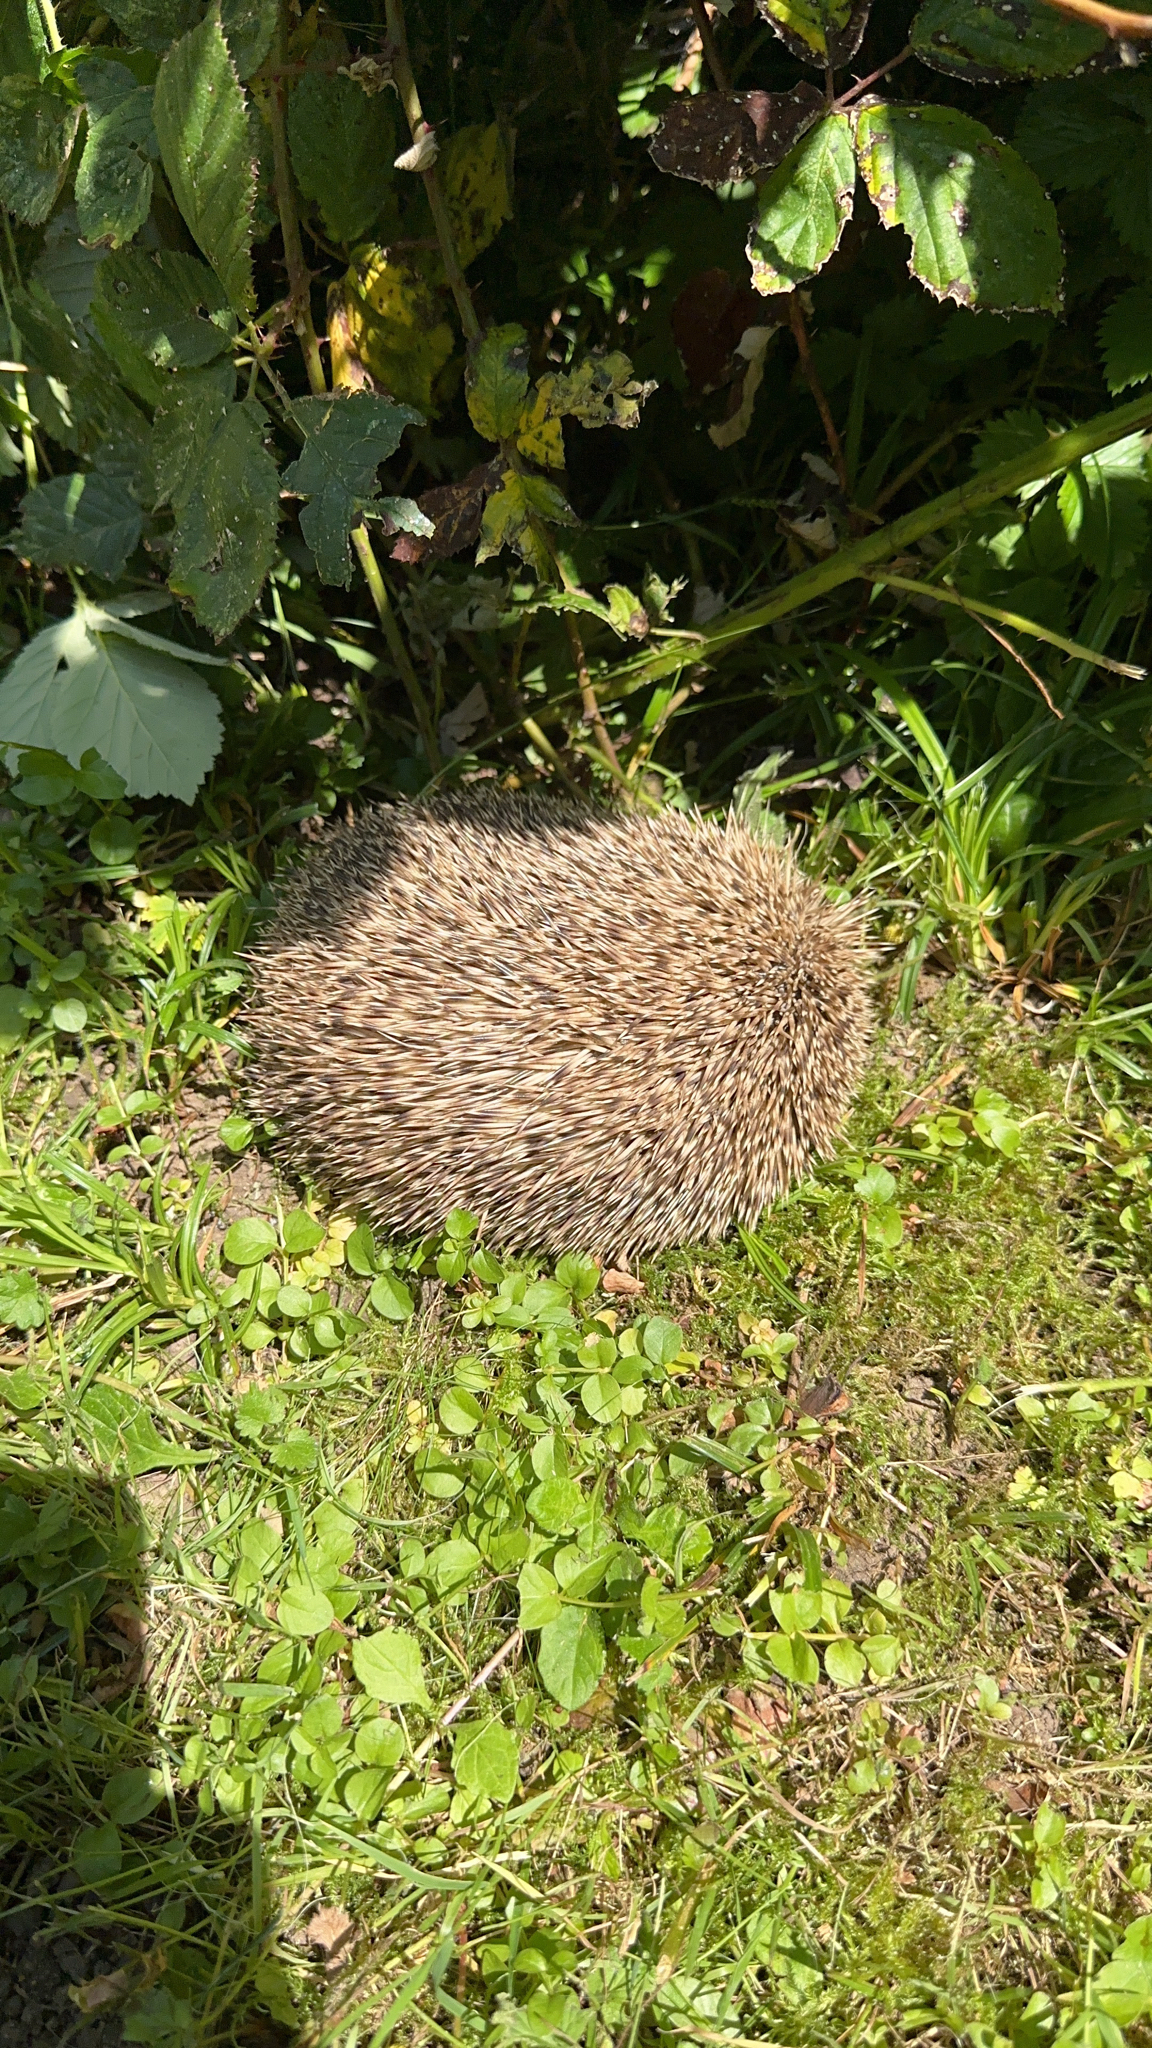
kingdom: Animalia
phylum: Chordata
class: Mammalia
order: Erinaceomorpha
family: Erinaceidae
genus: Erinaceus
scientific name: Erinaceus europaeus
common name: West european hedgehog
